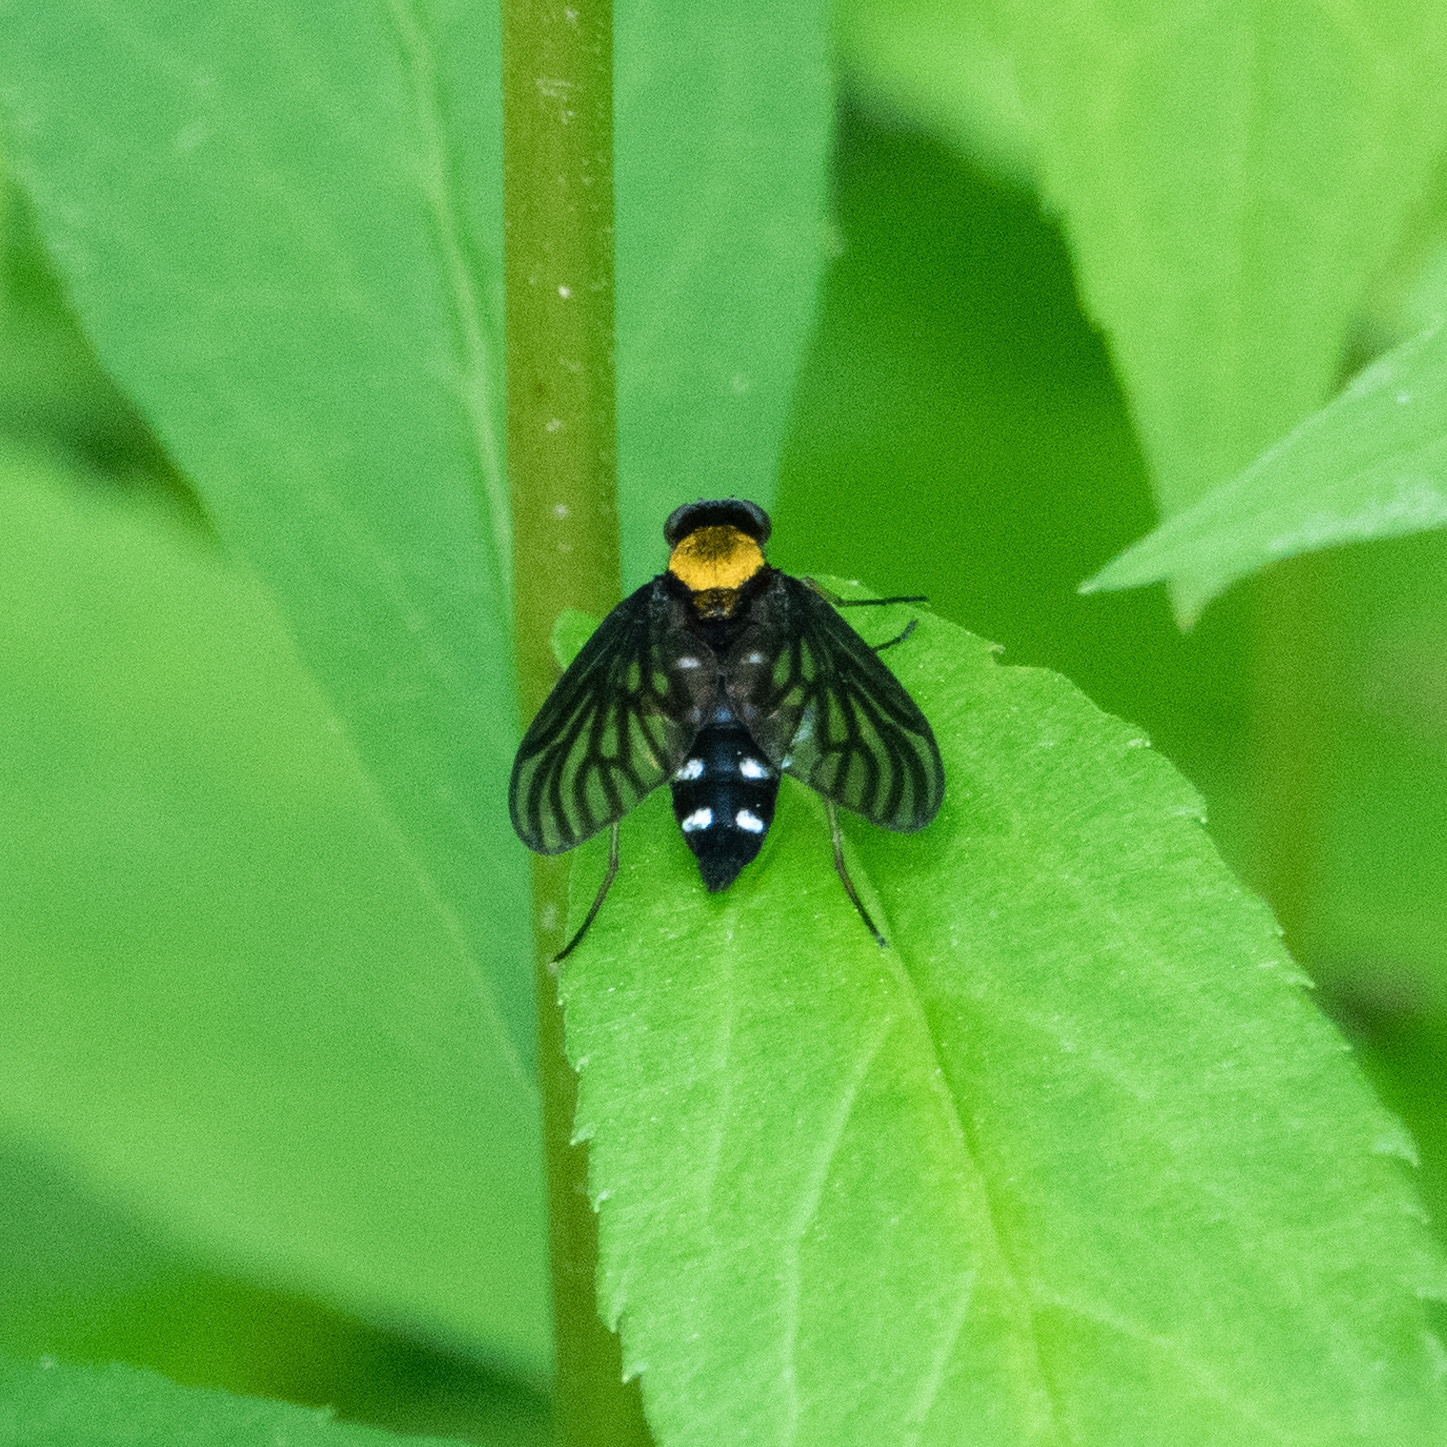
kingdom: Animalia
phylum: Arthropoda
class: Insecta
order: Diptera
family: Rhagionidae
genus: Chrysopilus
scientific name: Chrysopilus thoracicus
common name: Golden-backed snipe fly
